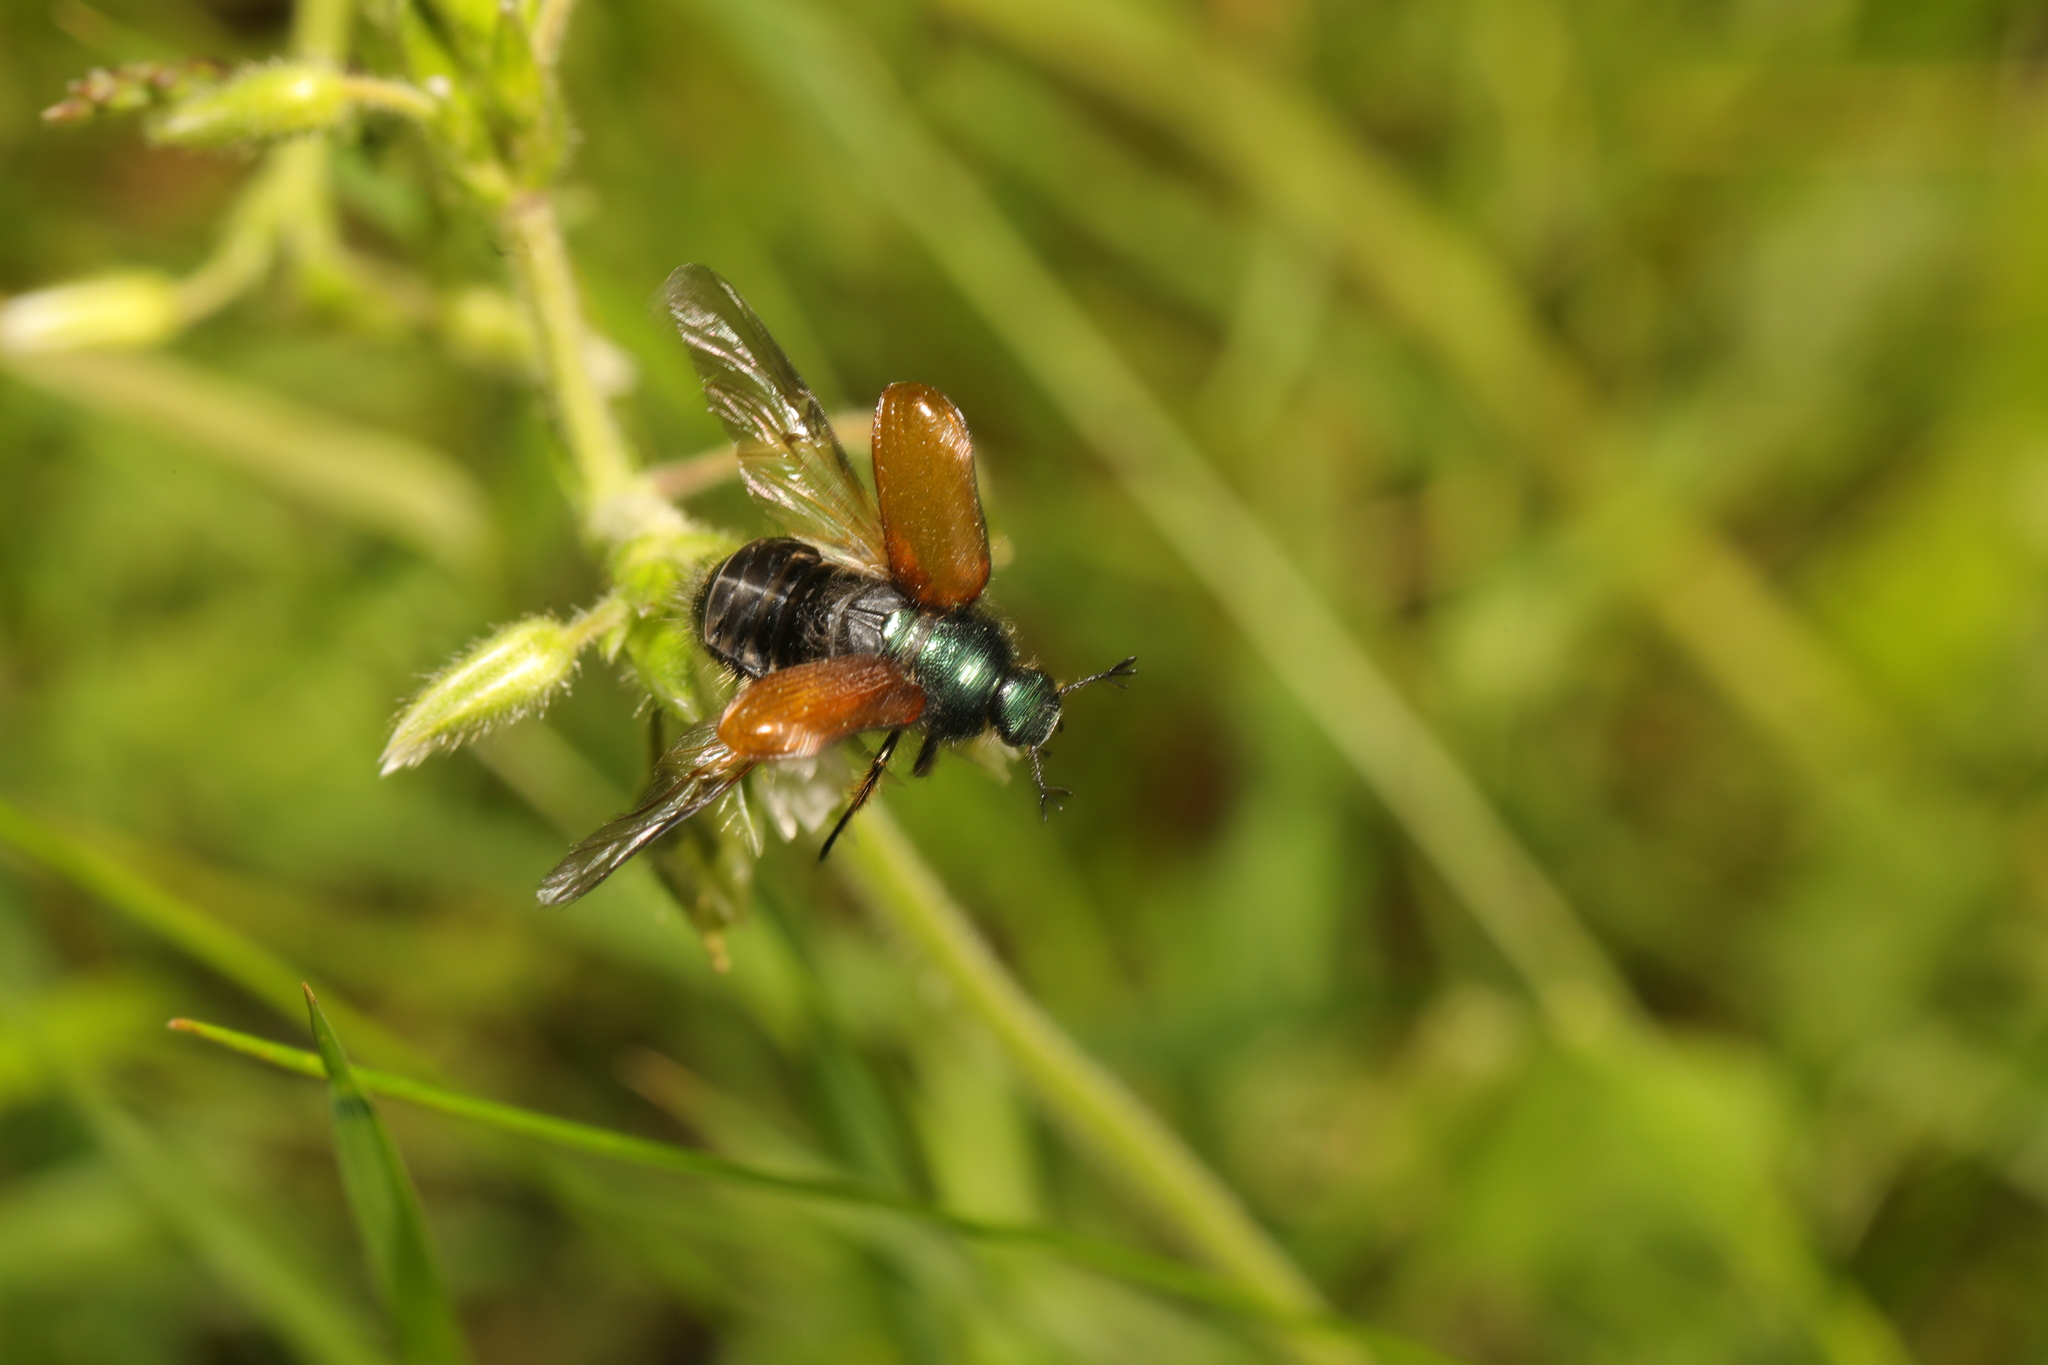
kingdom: Animalia
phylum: Arthropoda
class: Insecta
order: Coleoptera
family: Scarabaeidae
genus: Phyllopertha
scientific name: Phyllopertha horticola
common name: Garden chafer
